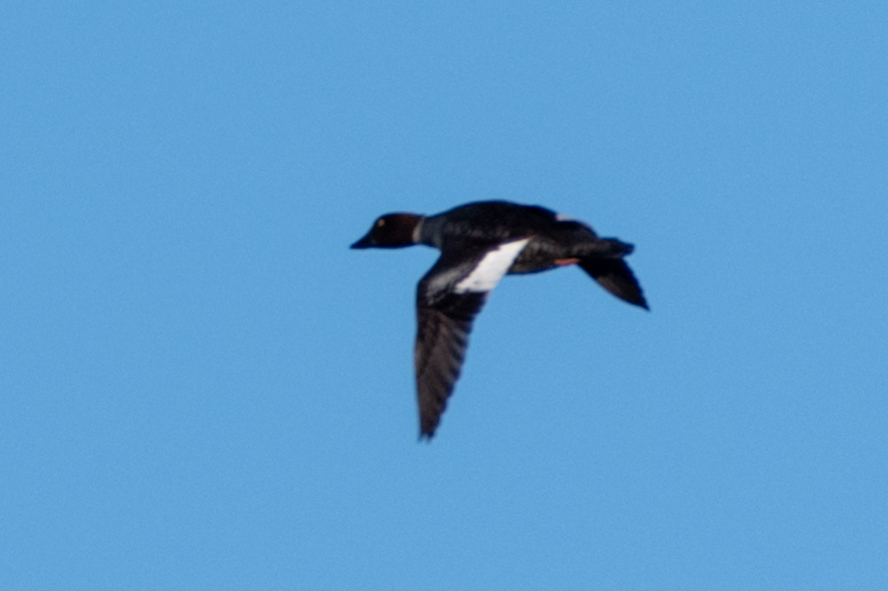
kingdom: Animalia
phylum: Chordata
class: Aves
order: Anseriformes
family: Anatidae
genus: Bucephala
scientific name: Bucephala clangula
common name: Common goldeneye
